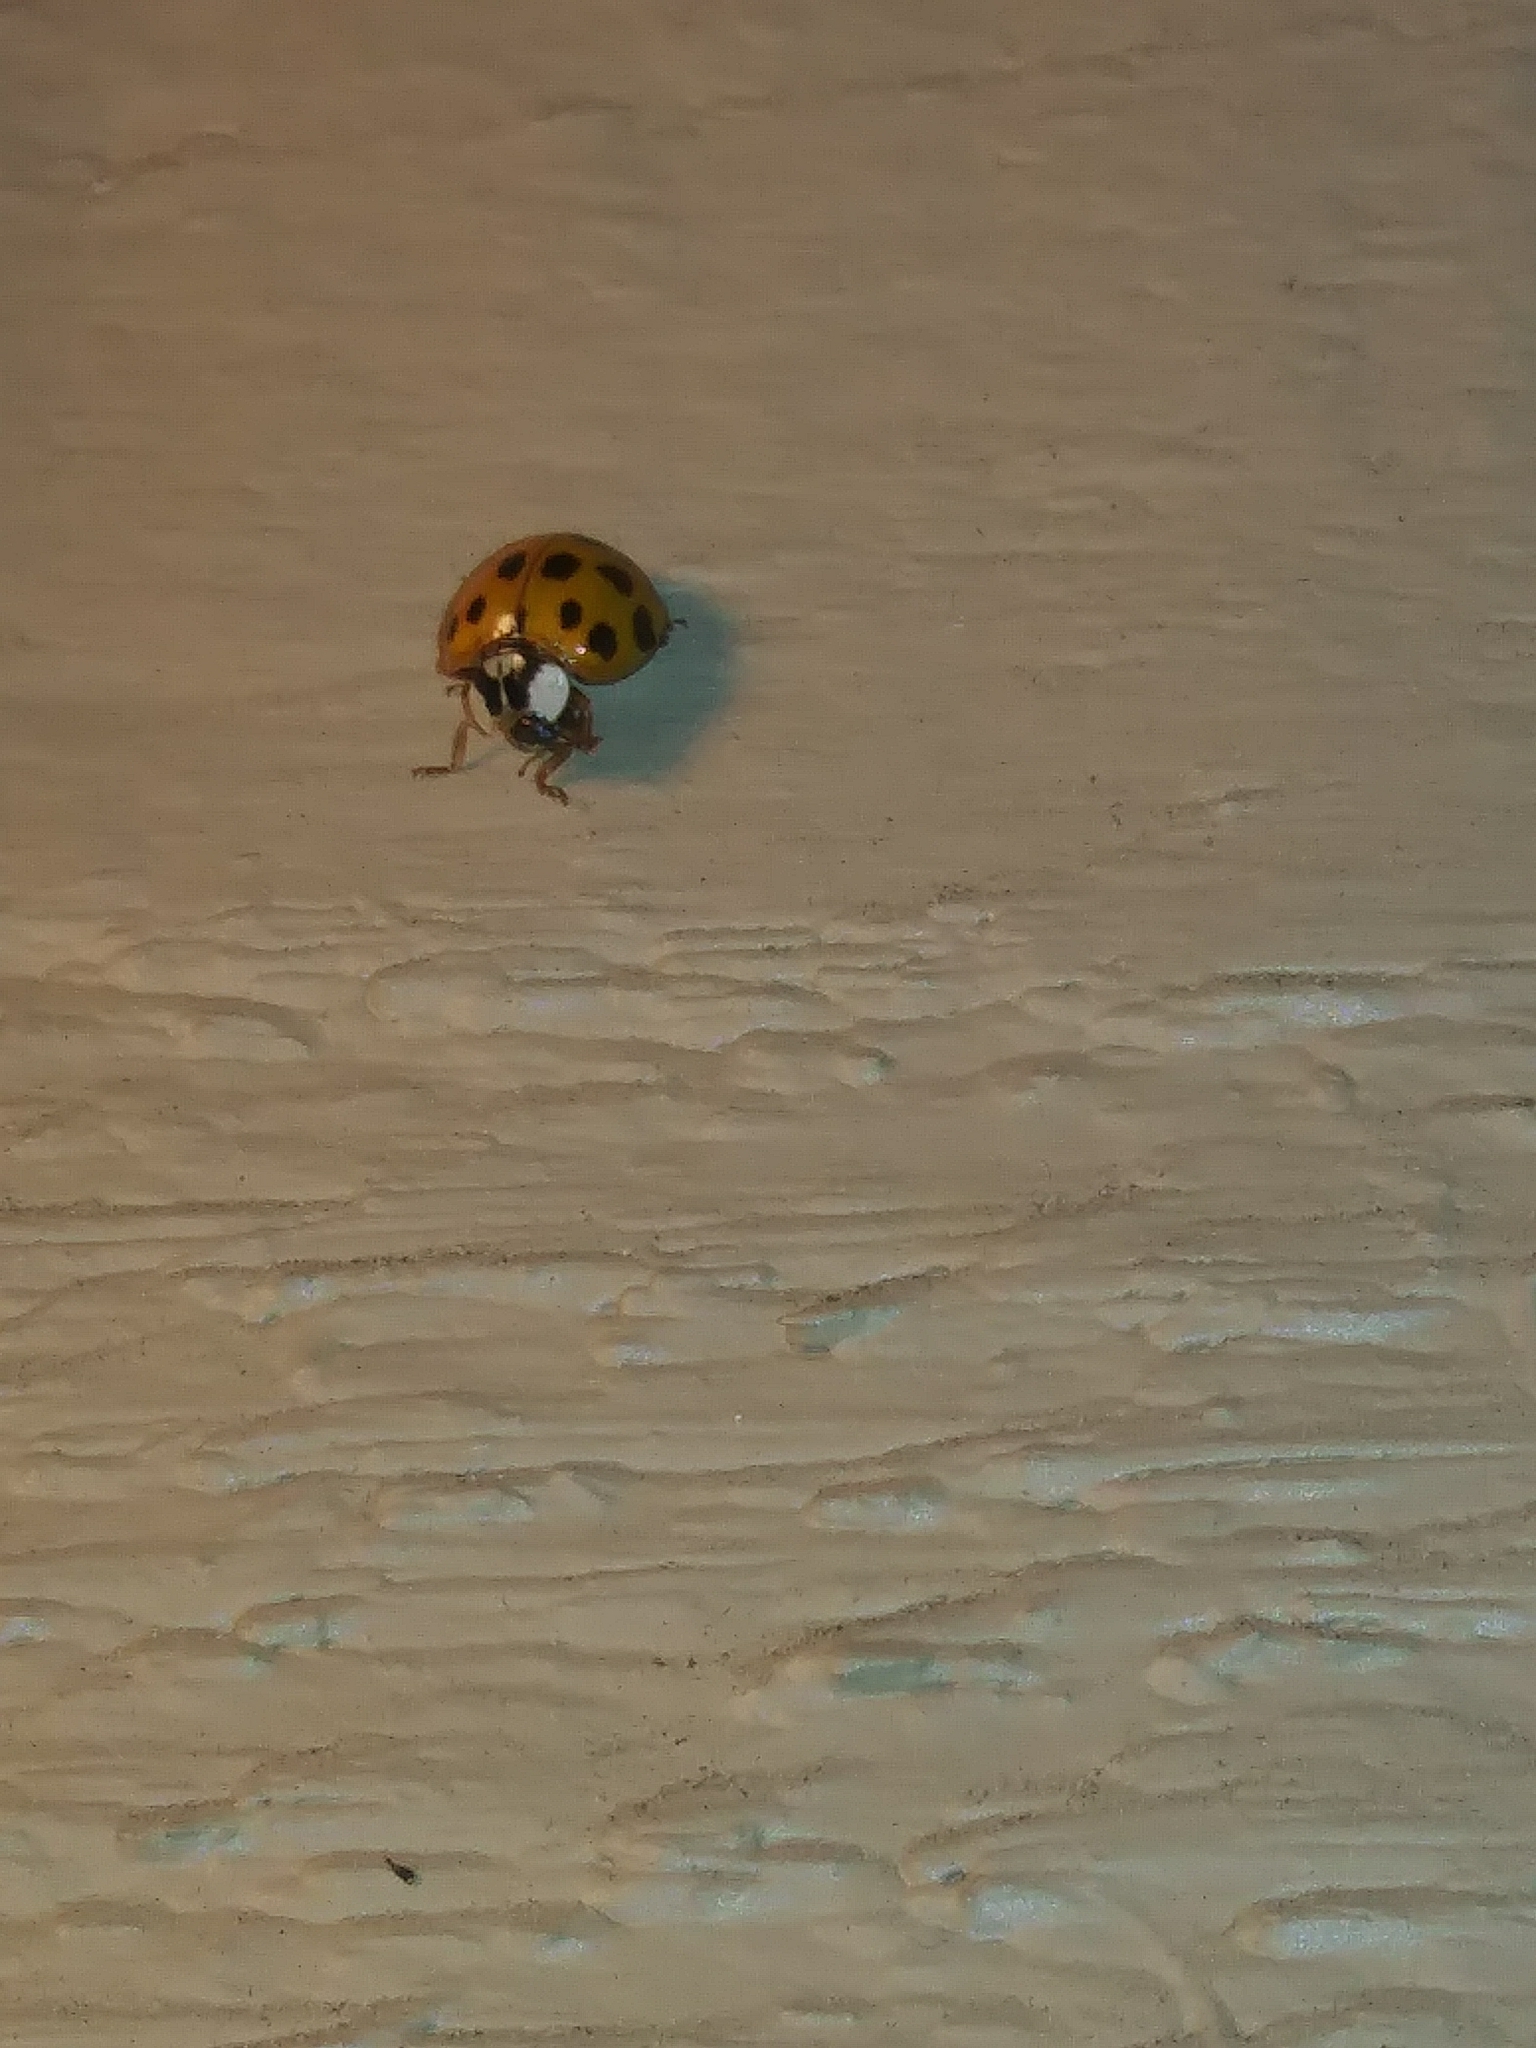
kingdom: Animalia
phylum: Arthropoda
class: Insecta
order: Coleoptera
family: Coccinellidae
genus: Harmonia
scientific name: Harmonia axyridis
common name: Harlequin ladybird
